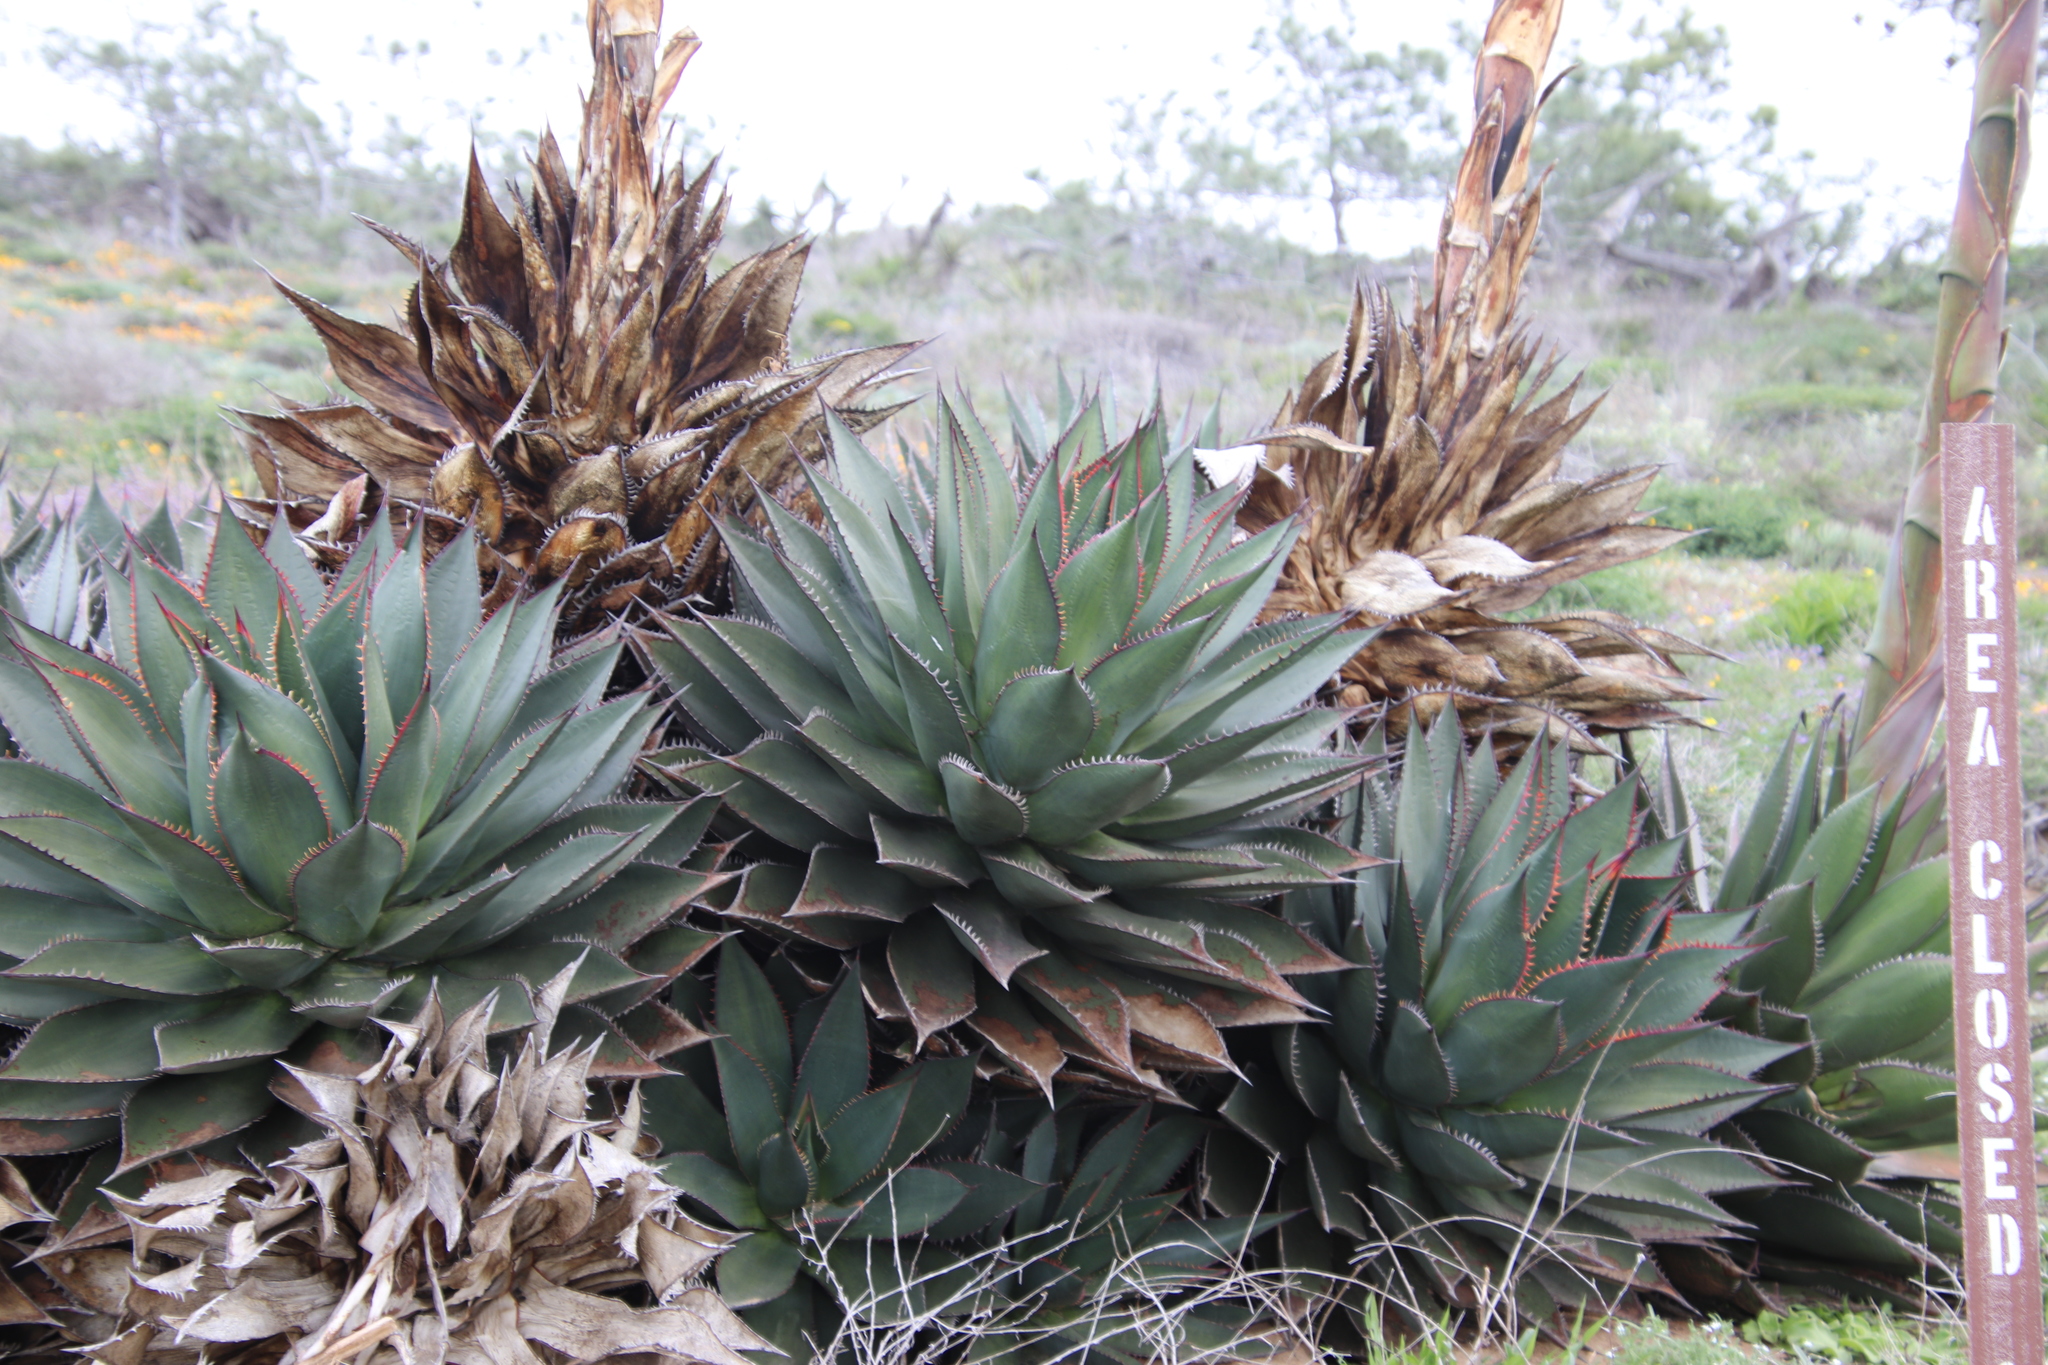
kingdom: Plantae
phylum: Tracheophyta
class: Liliopsida
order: Asparagales
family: Asparagaceae
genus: Agave
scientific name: Agave shawii
